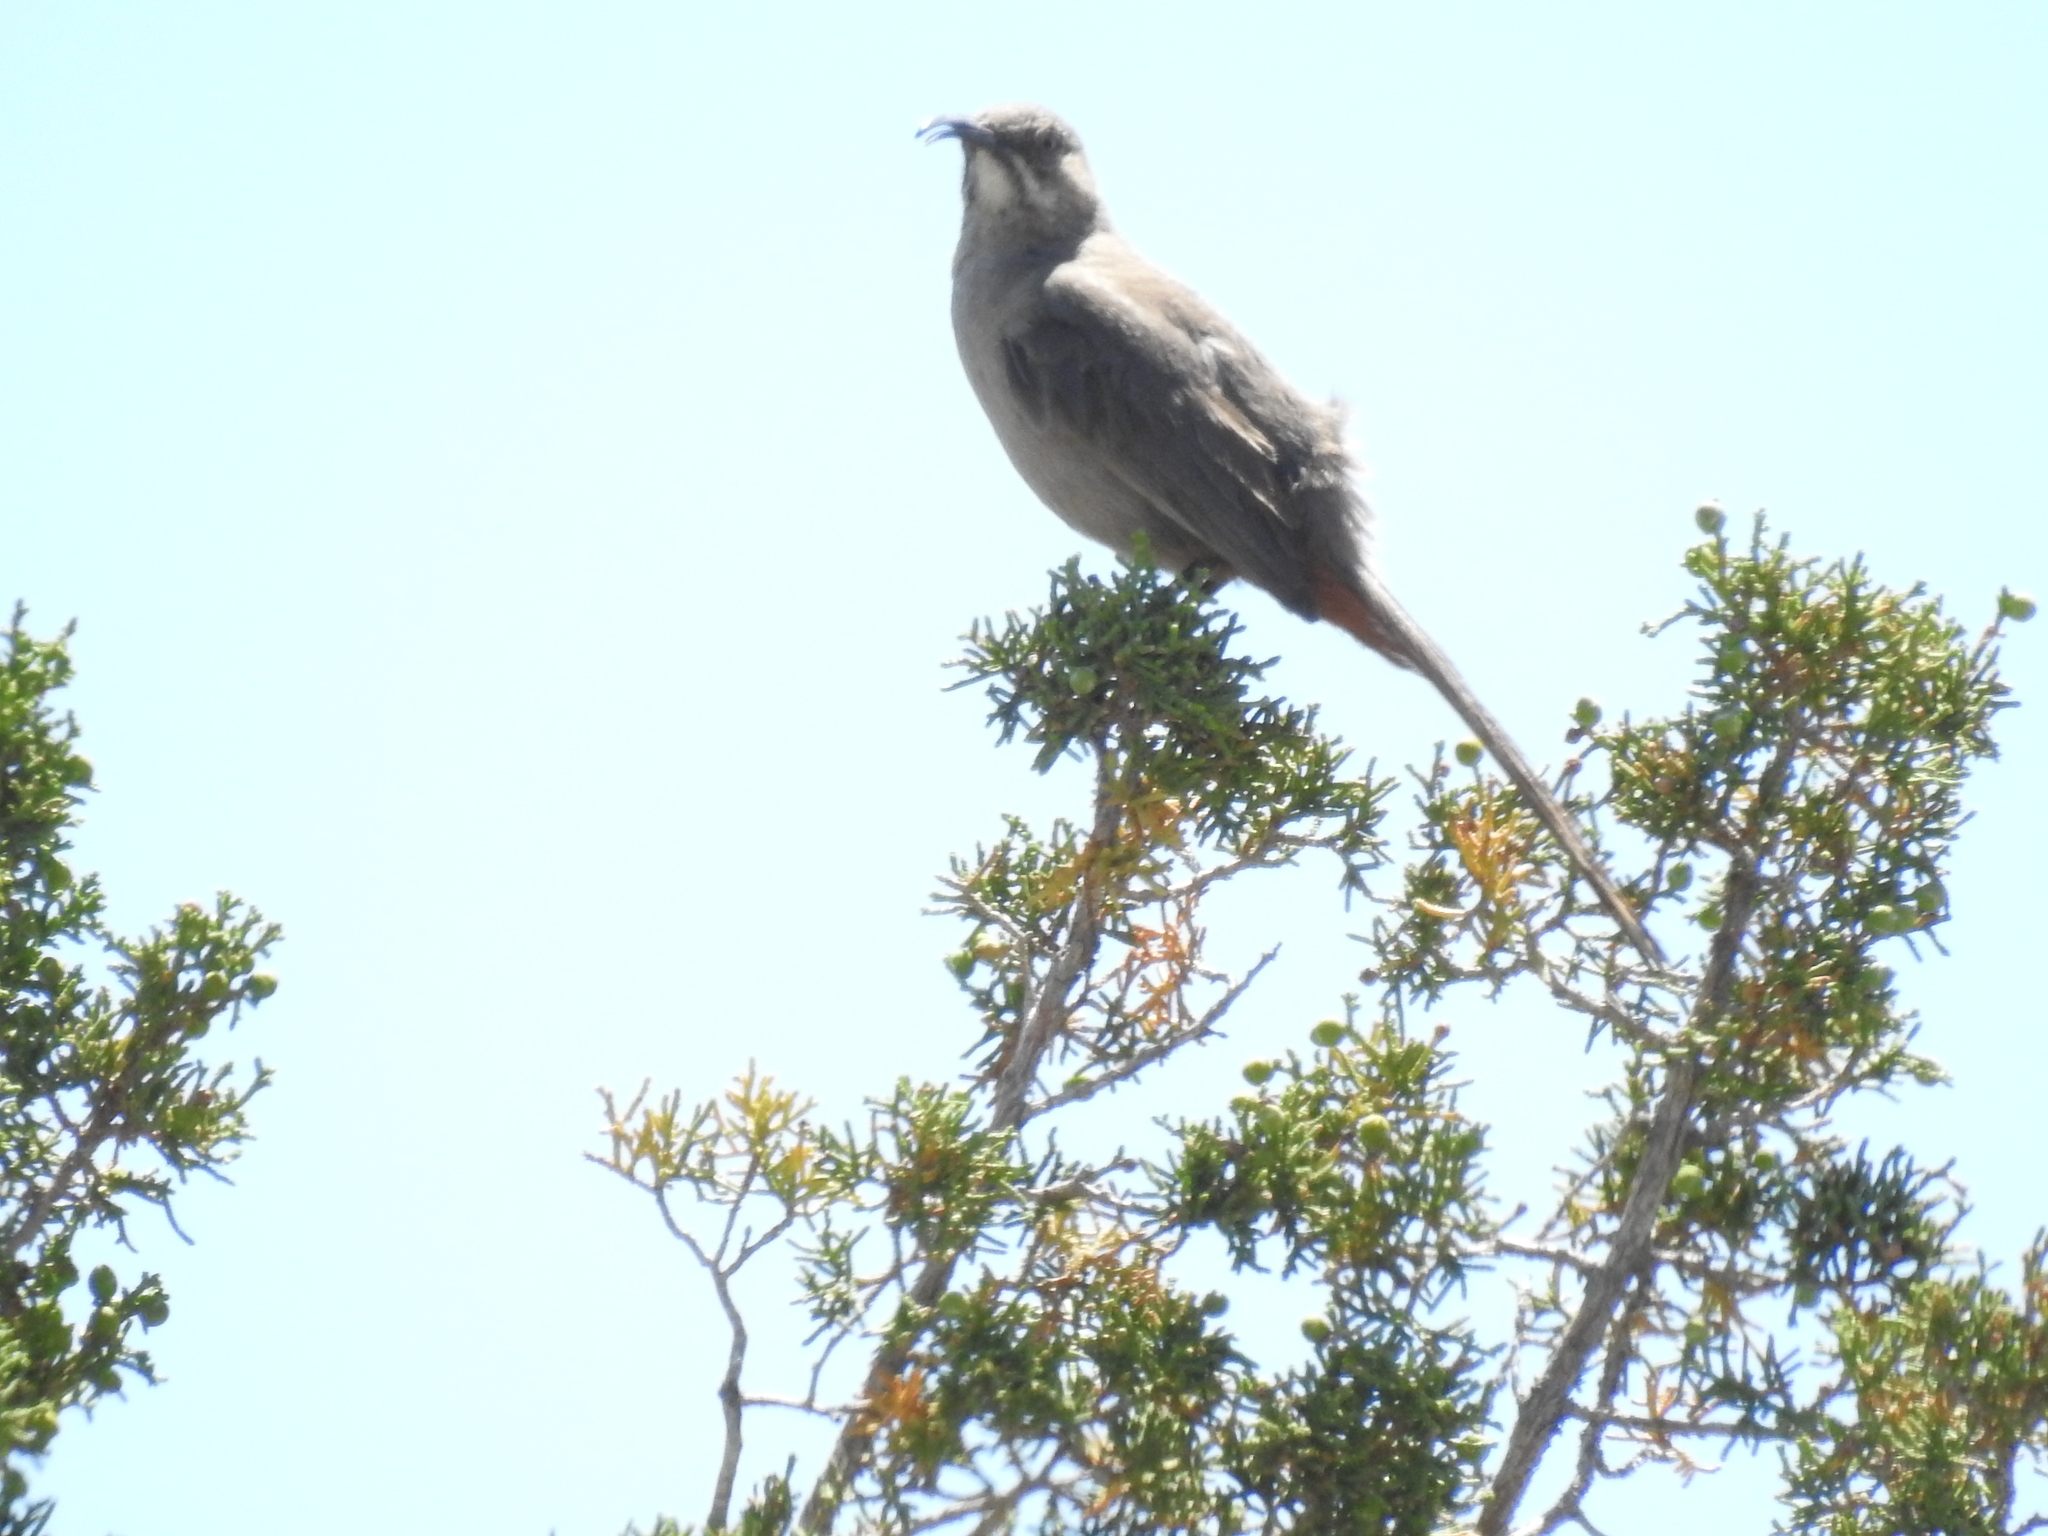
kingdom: Animalia
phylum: Chordata
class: Aves
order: Passeriformes
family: Mimidae
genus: Toxostoma
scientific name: Toxostoma crissale
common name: Crissal thrasher
